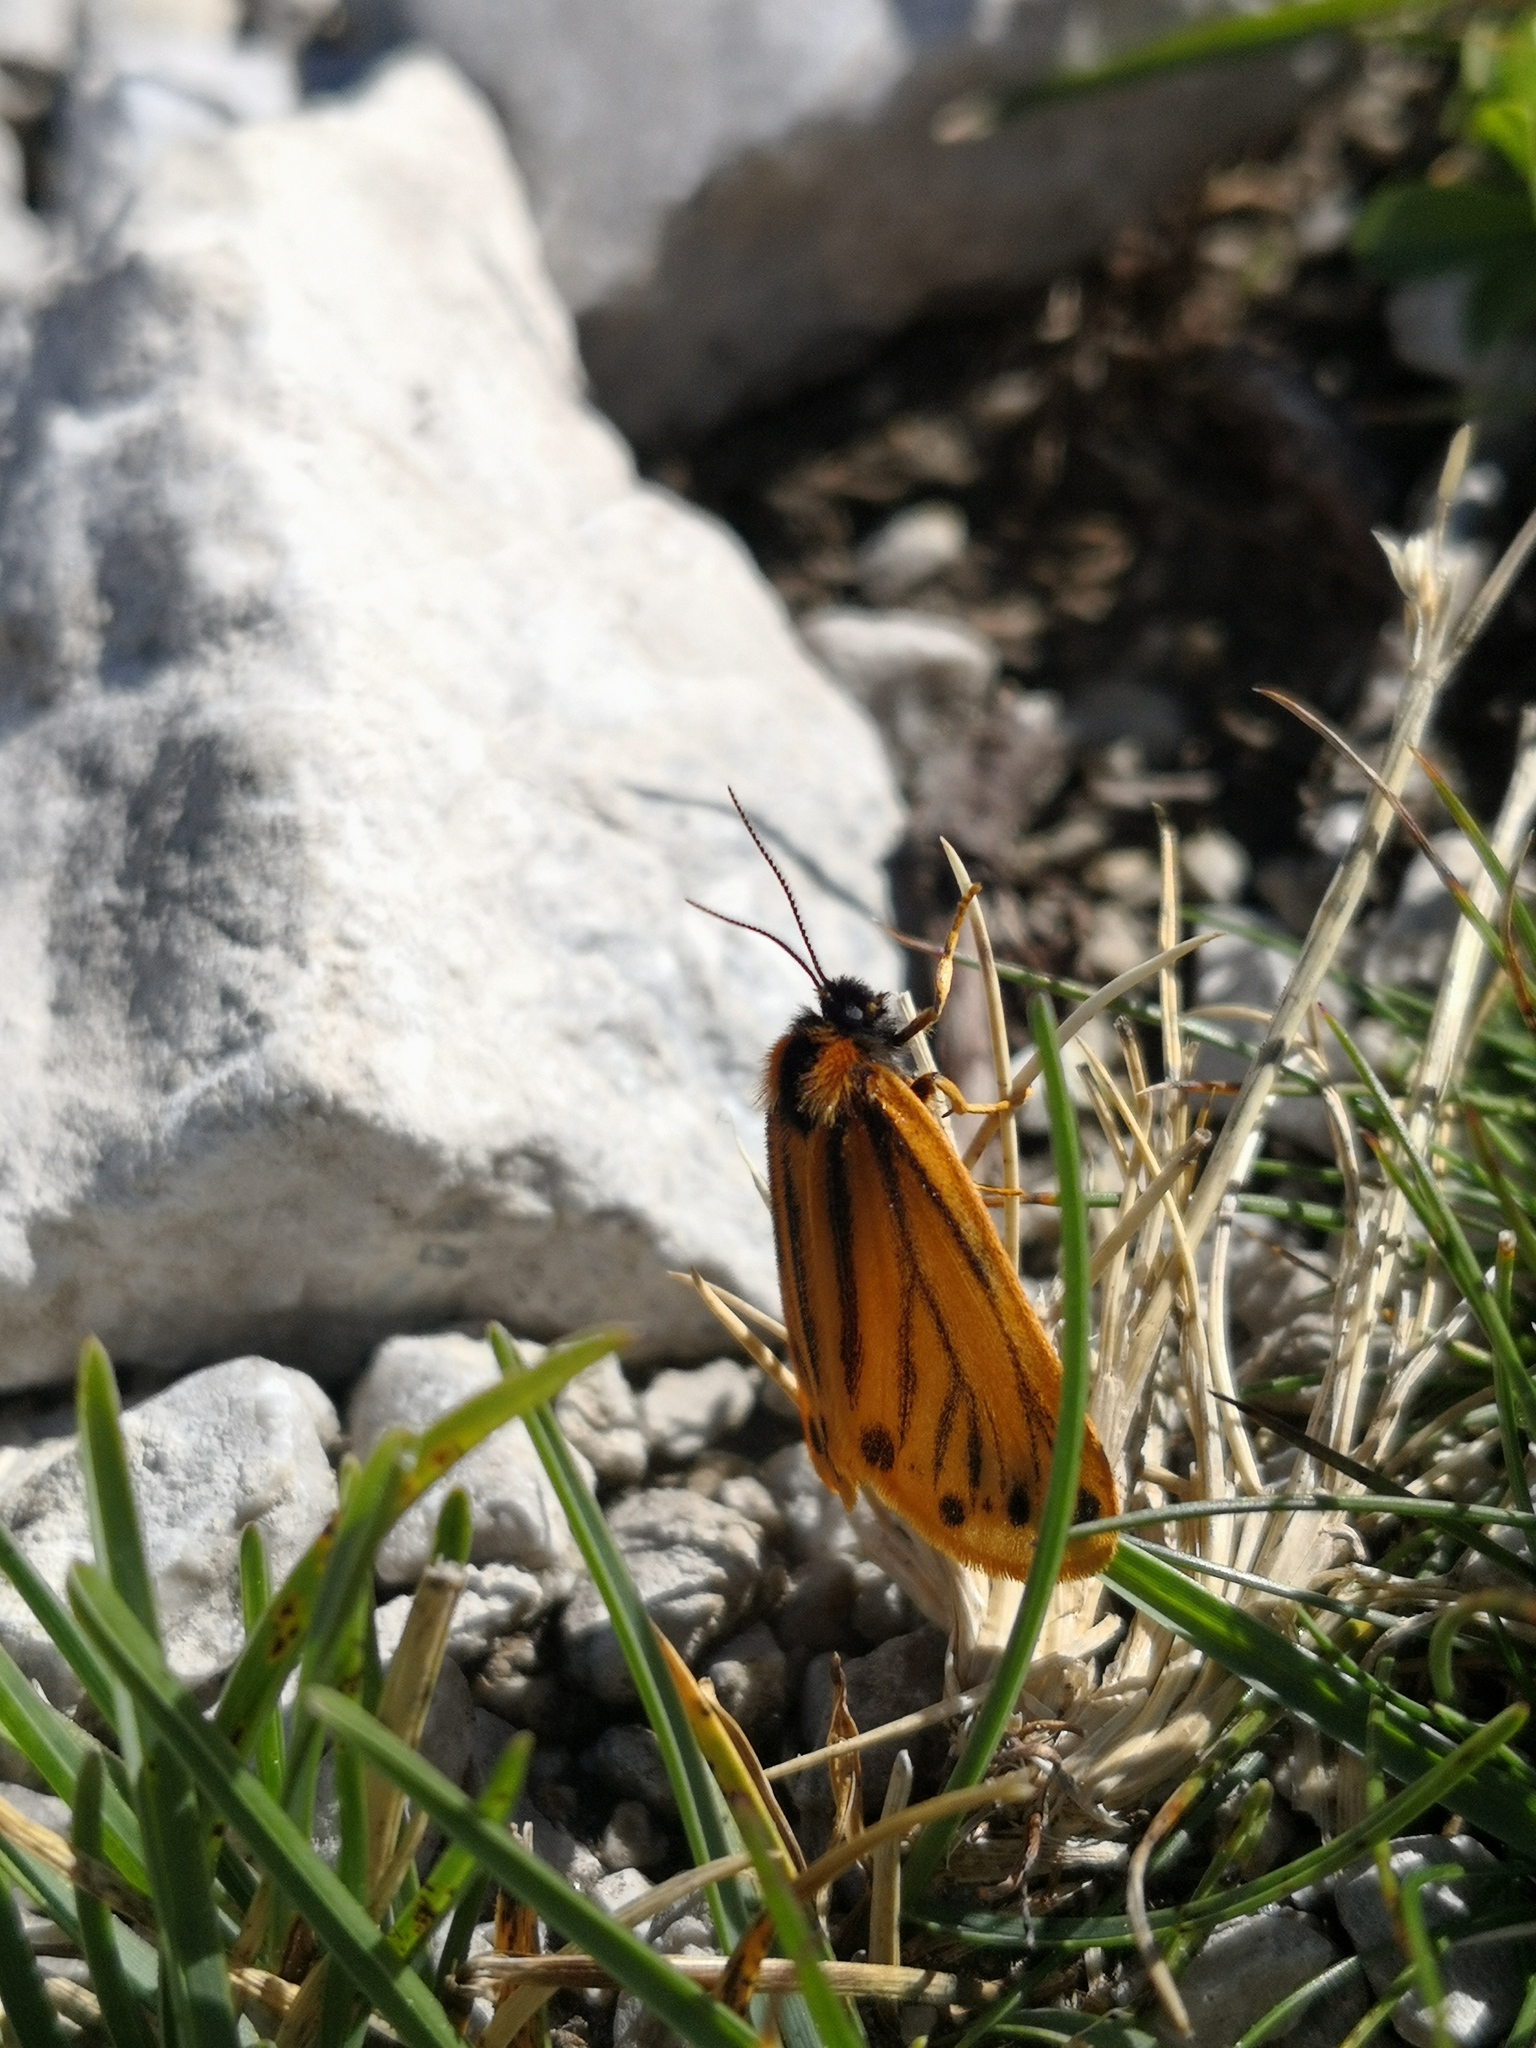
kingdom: Animalia
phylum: Arthropoda
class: Insecta
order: Lepidoptera
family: Erebidae
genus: Setina
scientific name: Setina aurita
